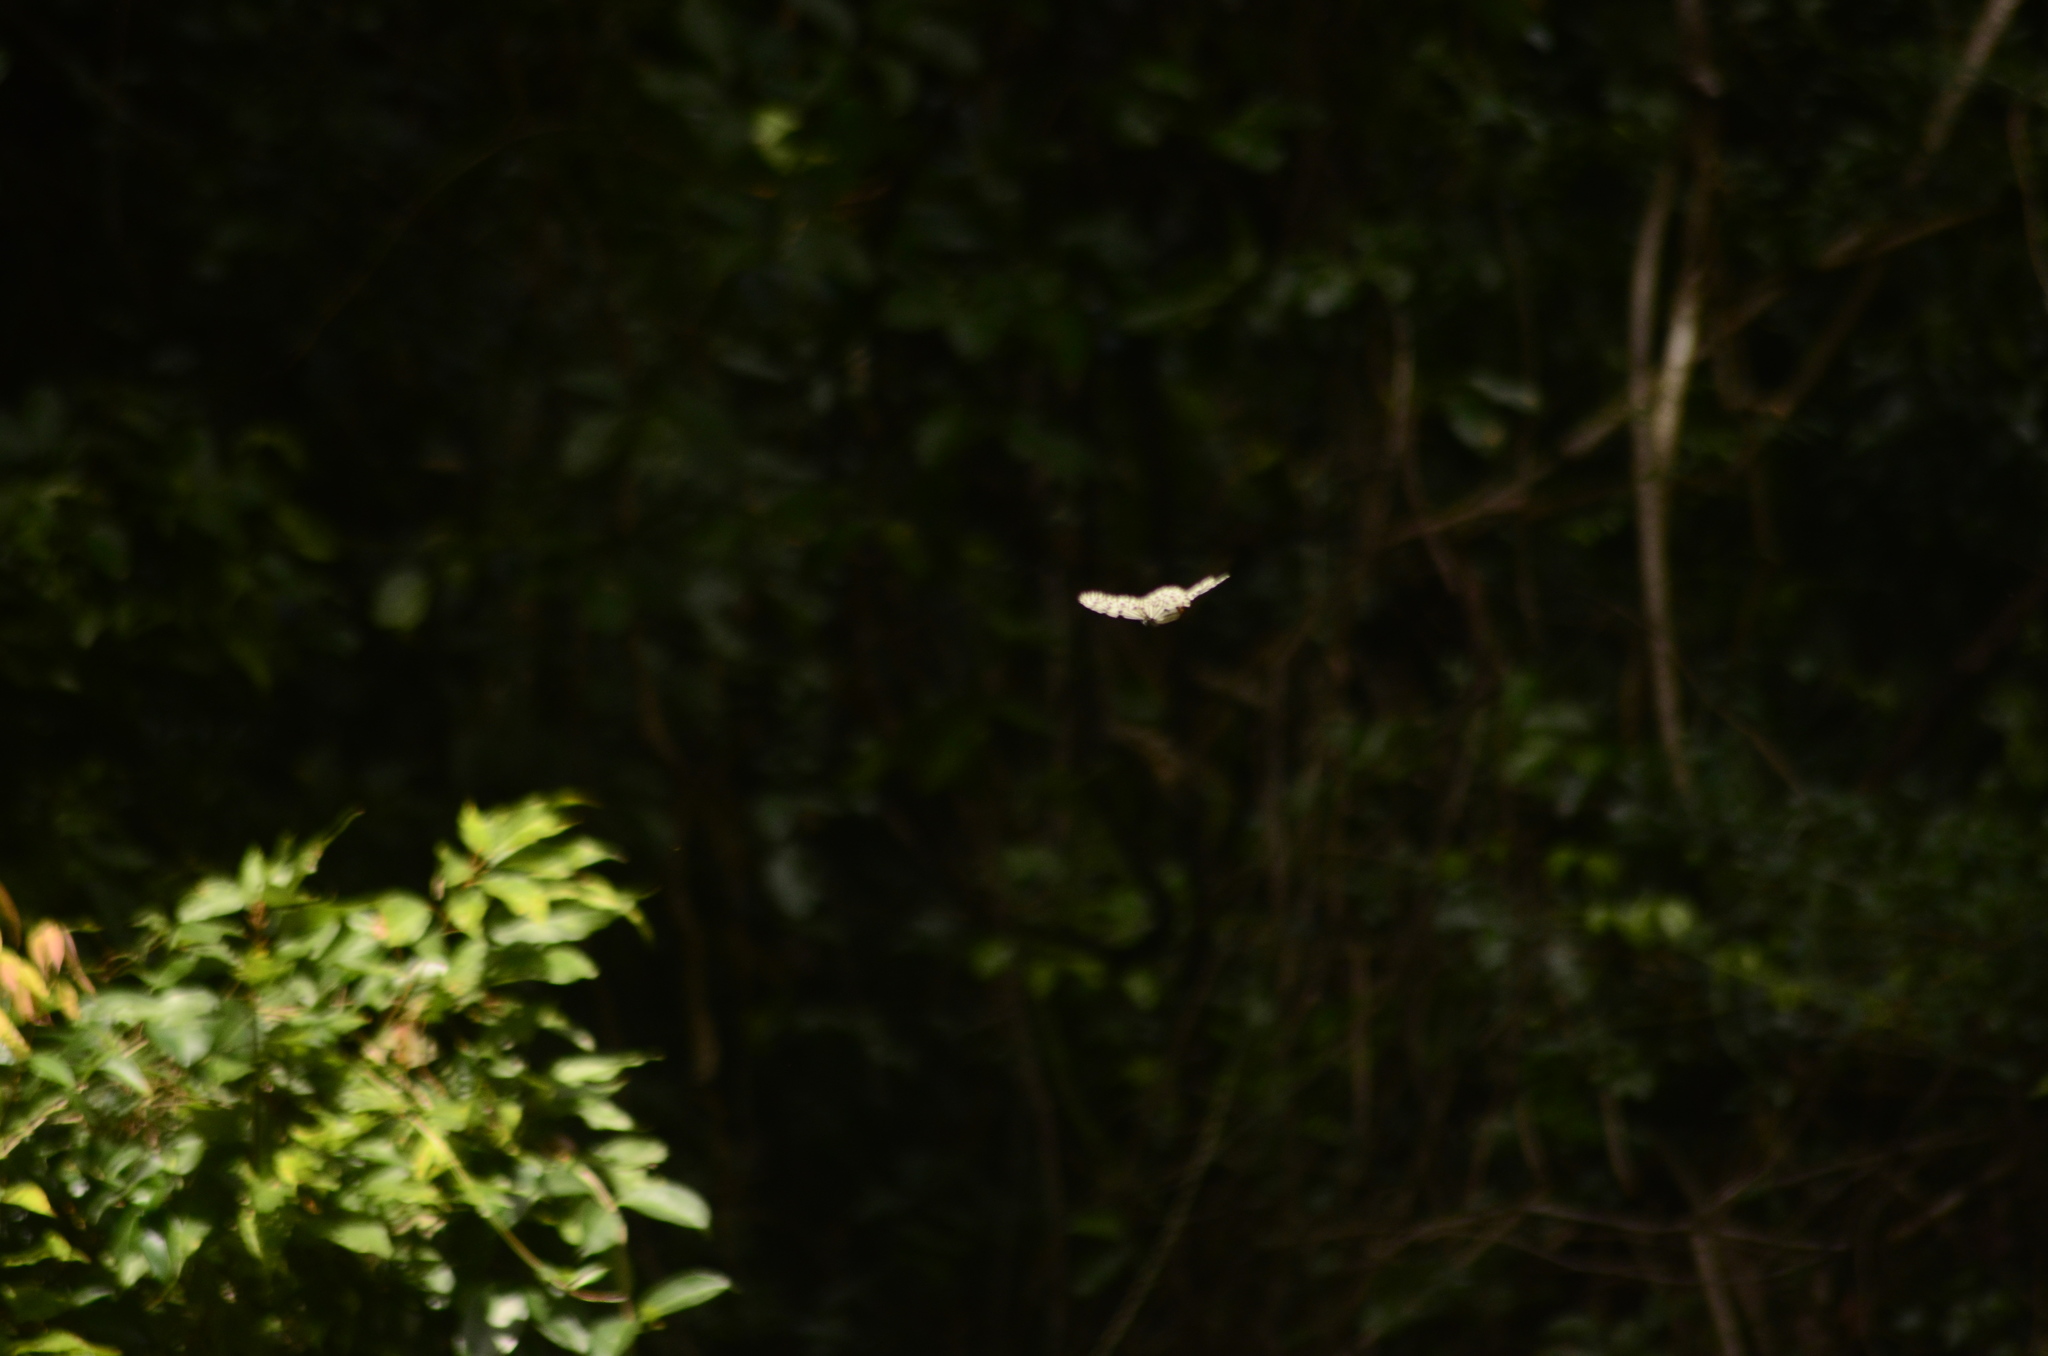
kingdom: Animalia
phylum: Arthropoda
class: Insecta
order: Lepidoptera
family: Nymphalidae
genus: Idea
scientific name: Idea malabarica
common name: Malabar tree-nymph
